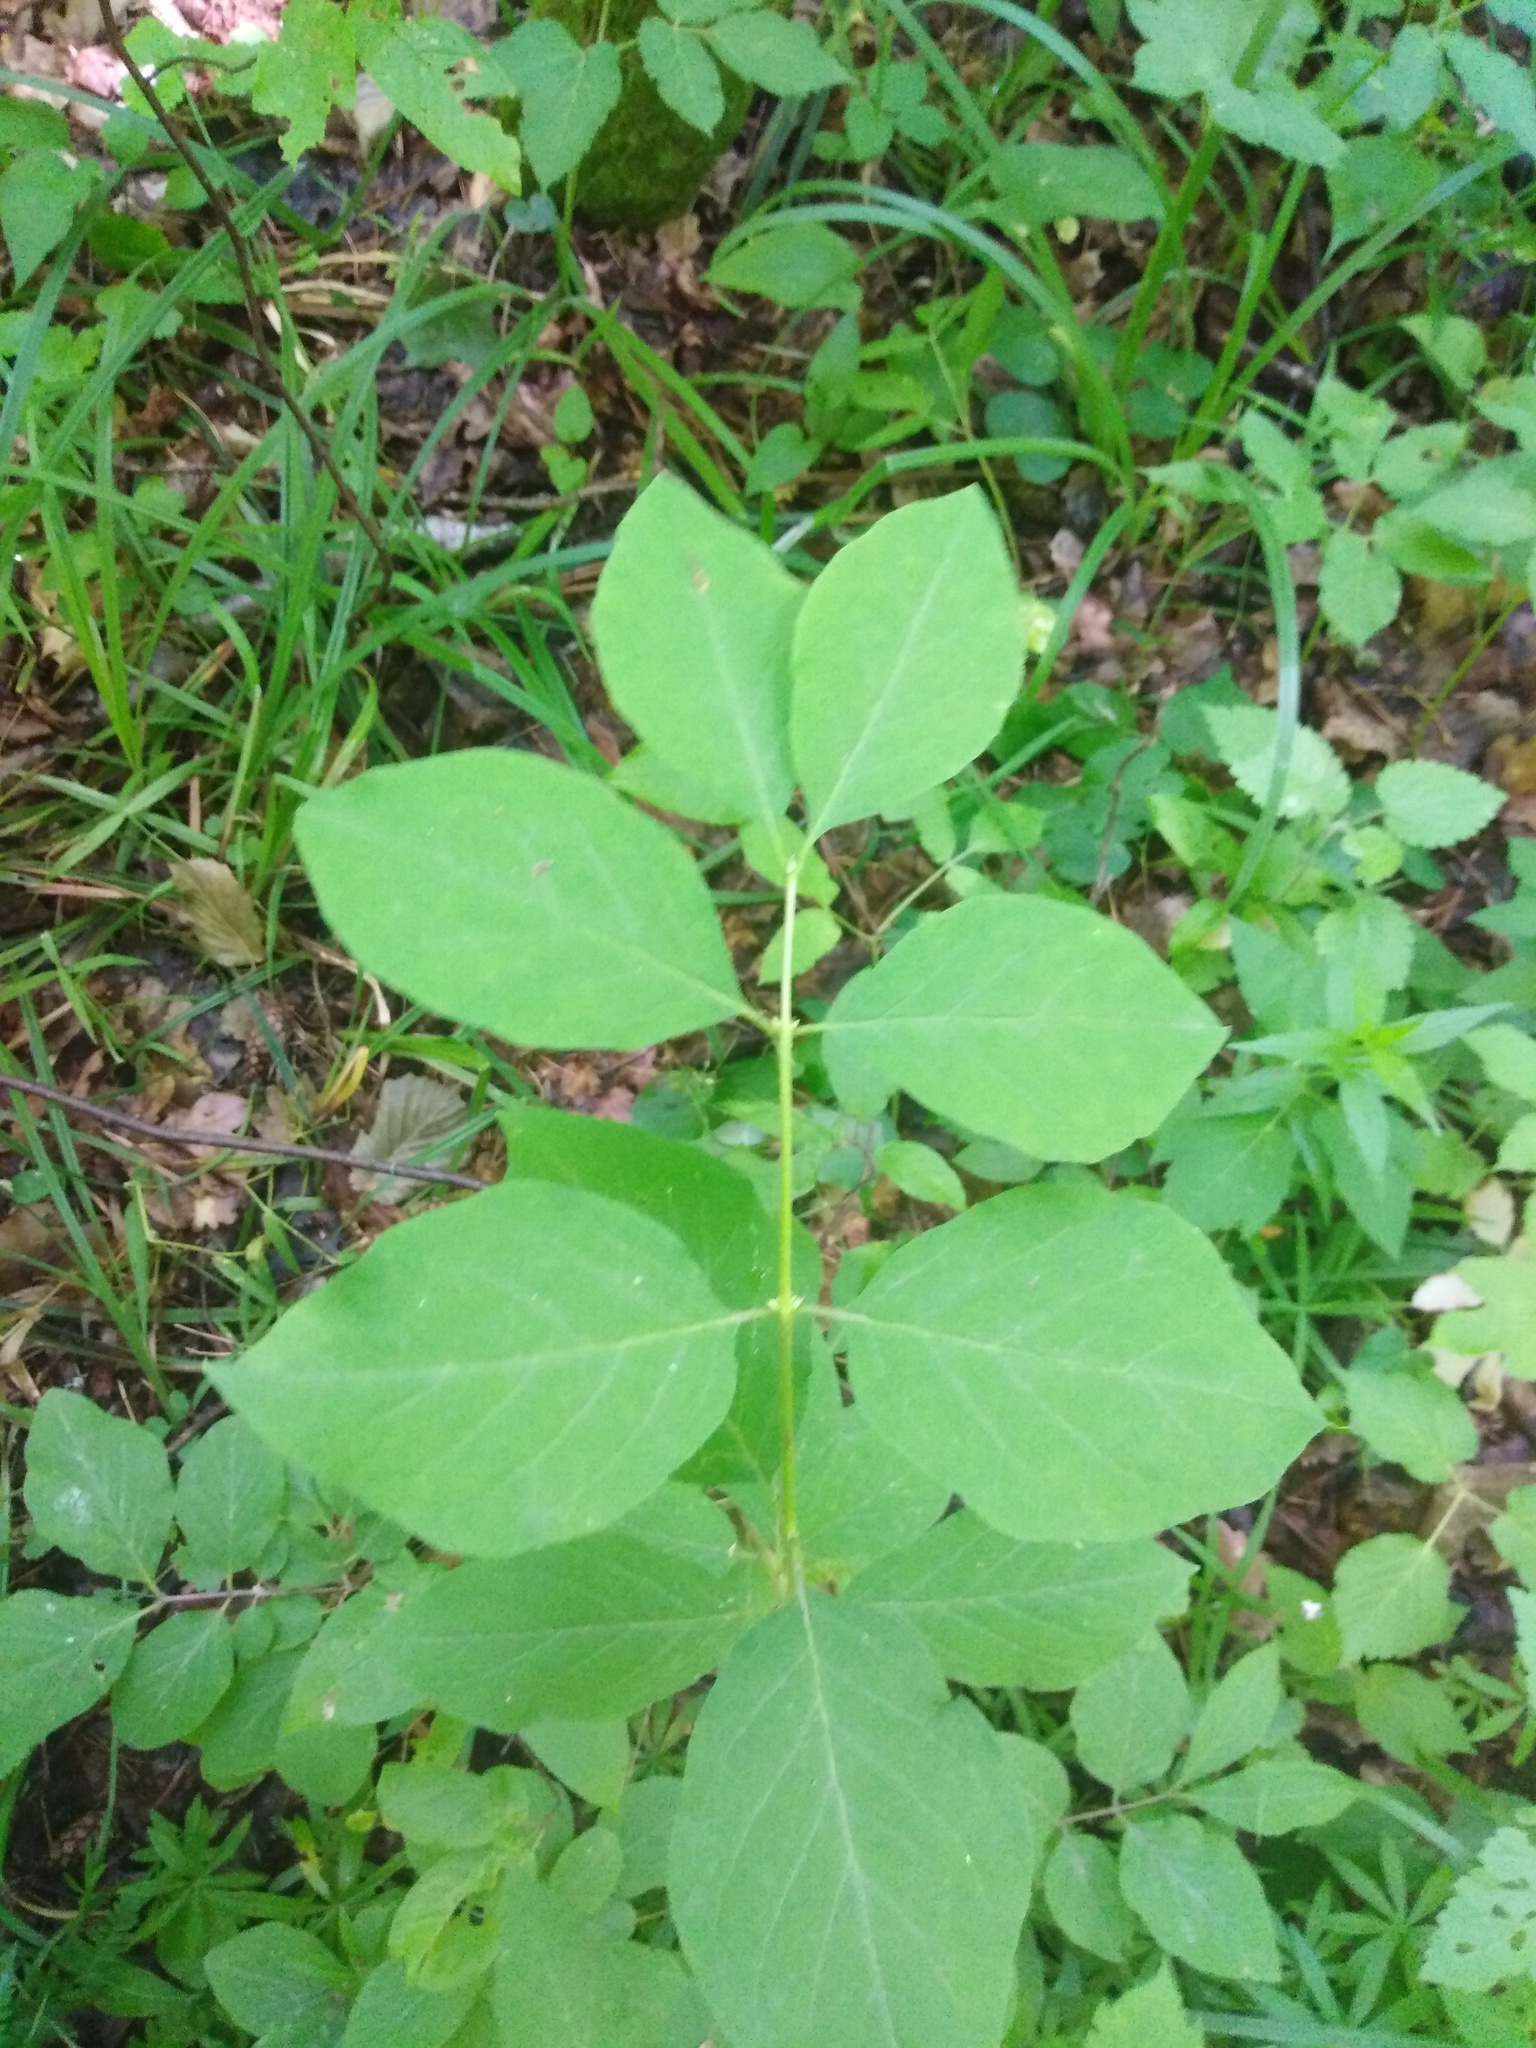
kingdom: Plantae
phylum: Tracheophyta
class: Magnoliopsida
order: Dipsacales
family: Caprifoliaceae
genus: Lonicera
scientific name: Lonicera xylosteum
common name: Fly honeysuckle
